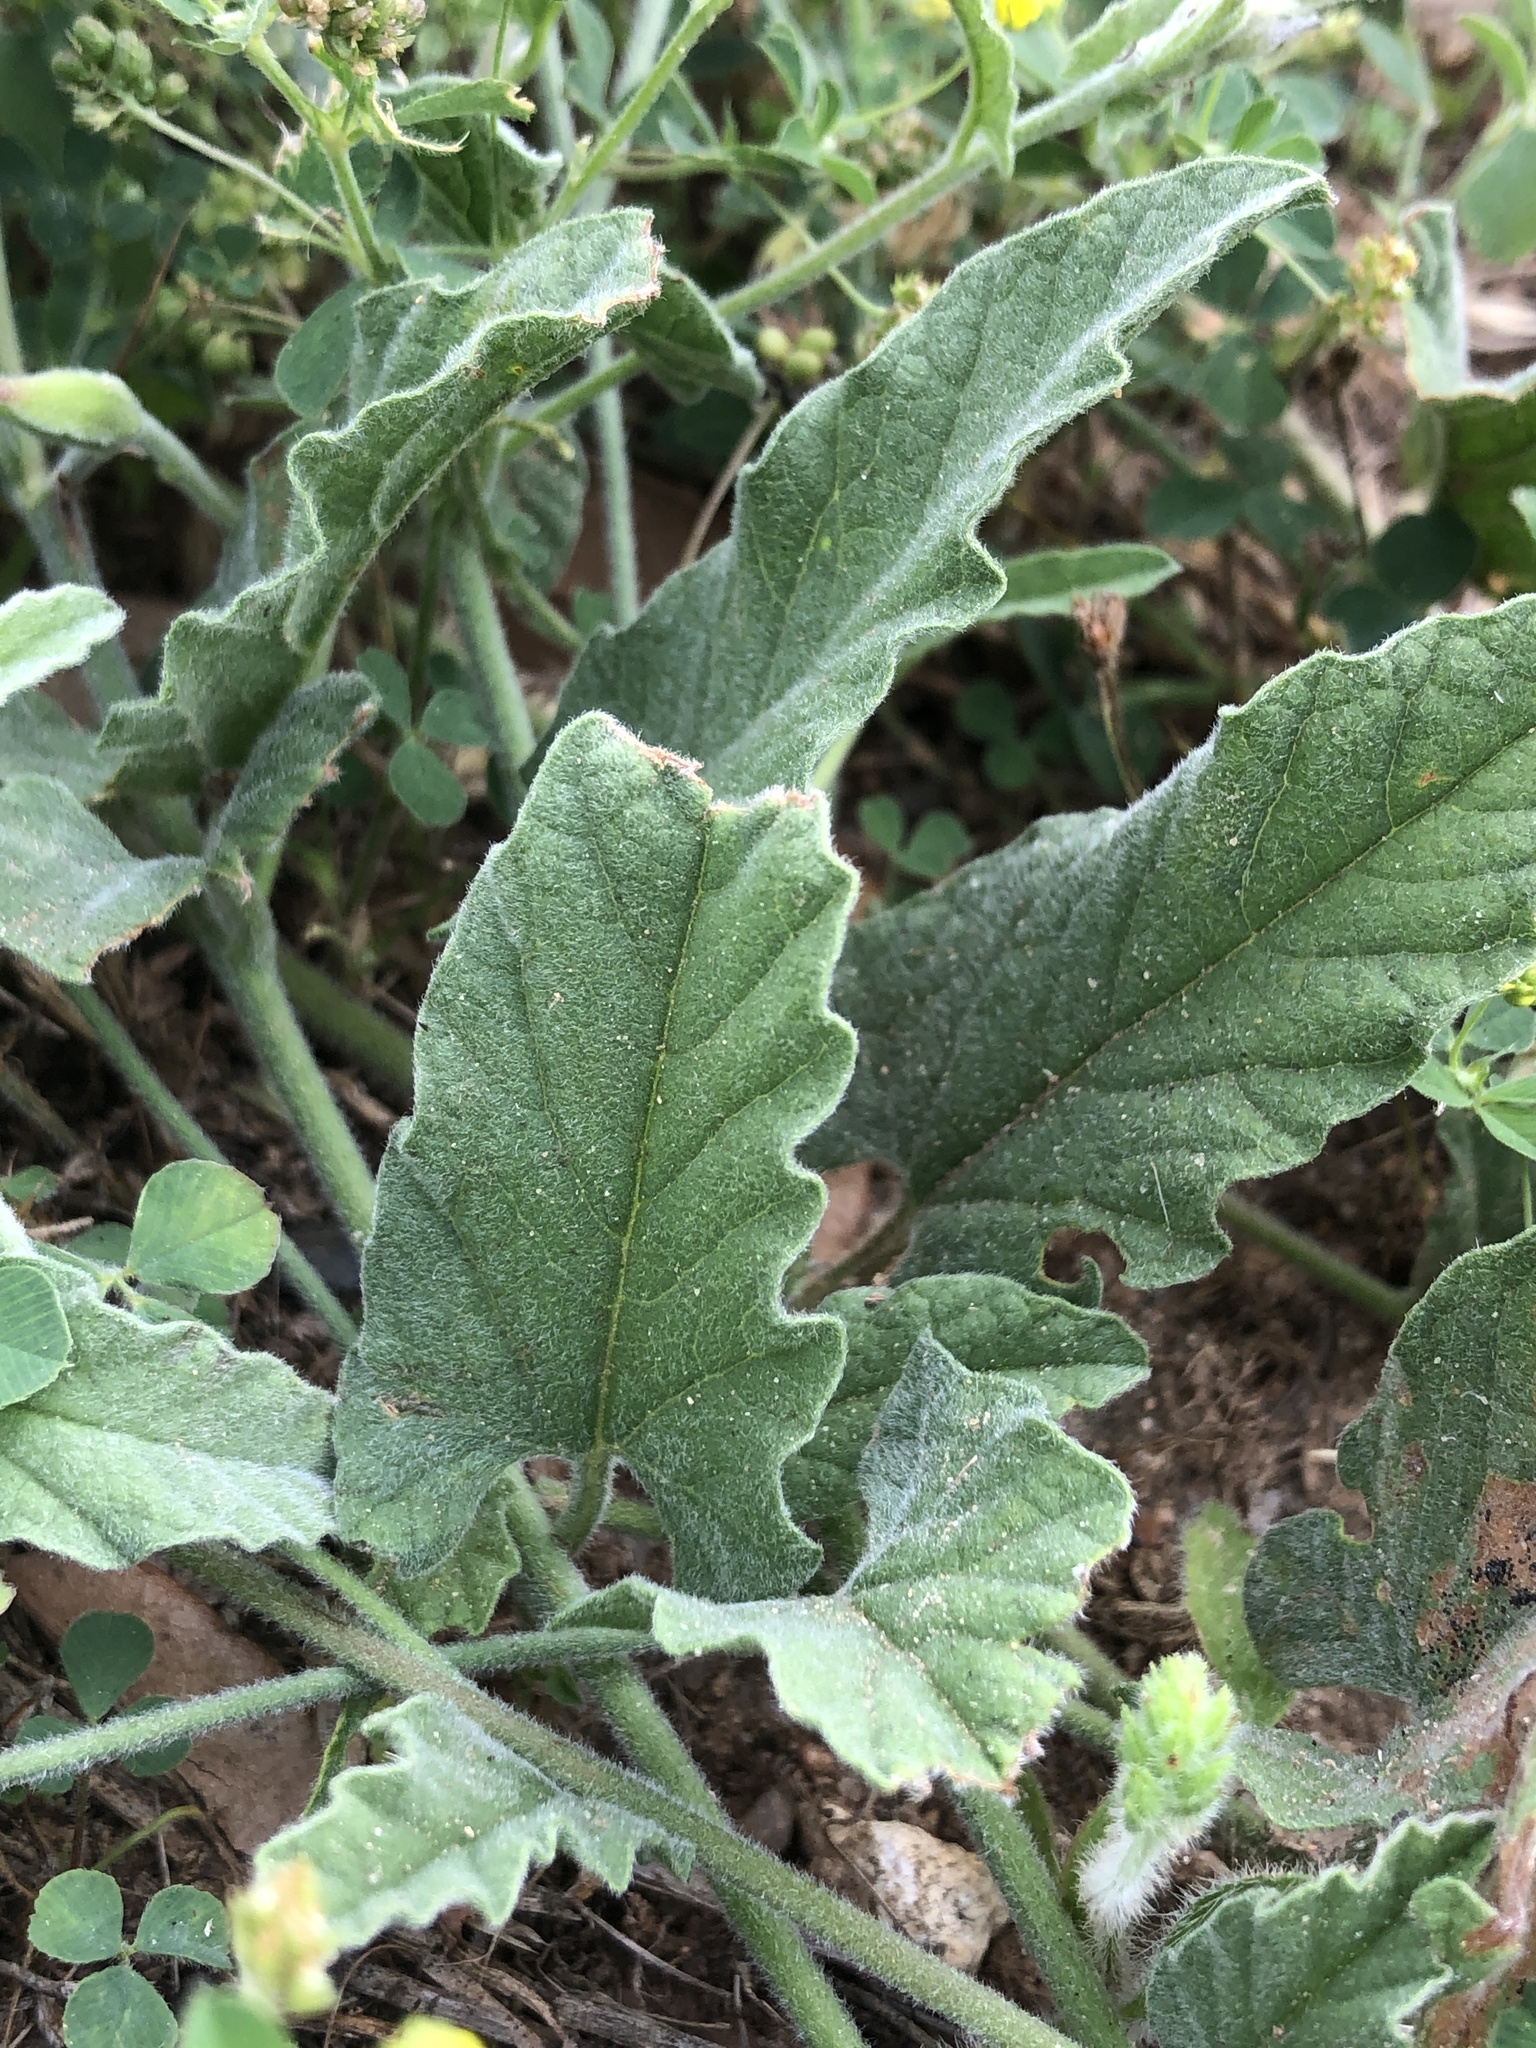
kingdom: Plantae
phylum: Tracheophyta
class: Magnoliopsida
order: Solanales
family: Convolvulaceae
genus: Convolvulus
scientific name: Convolvulus equitans
